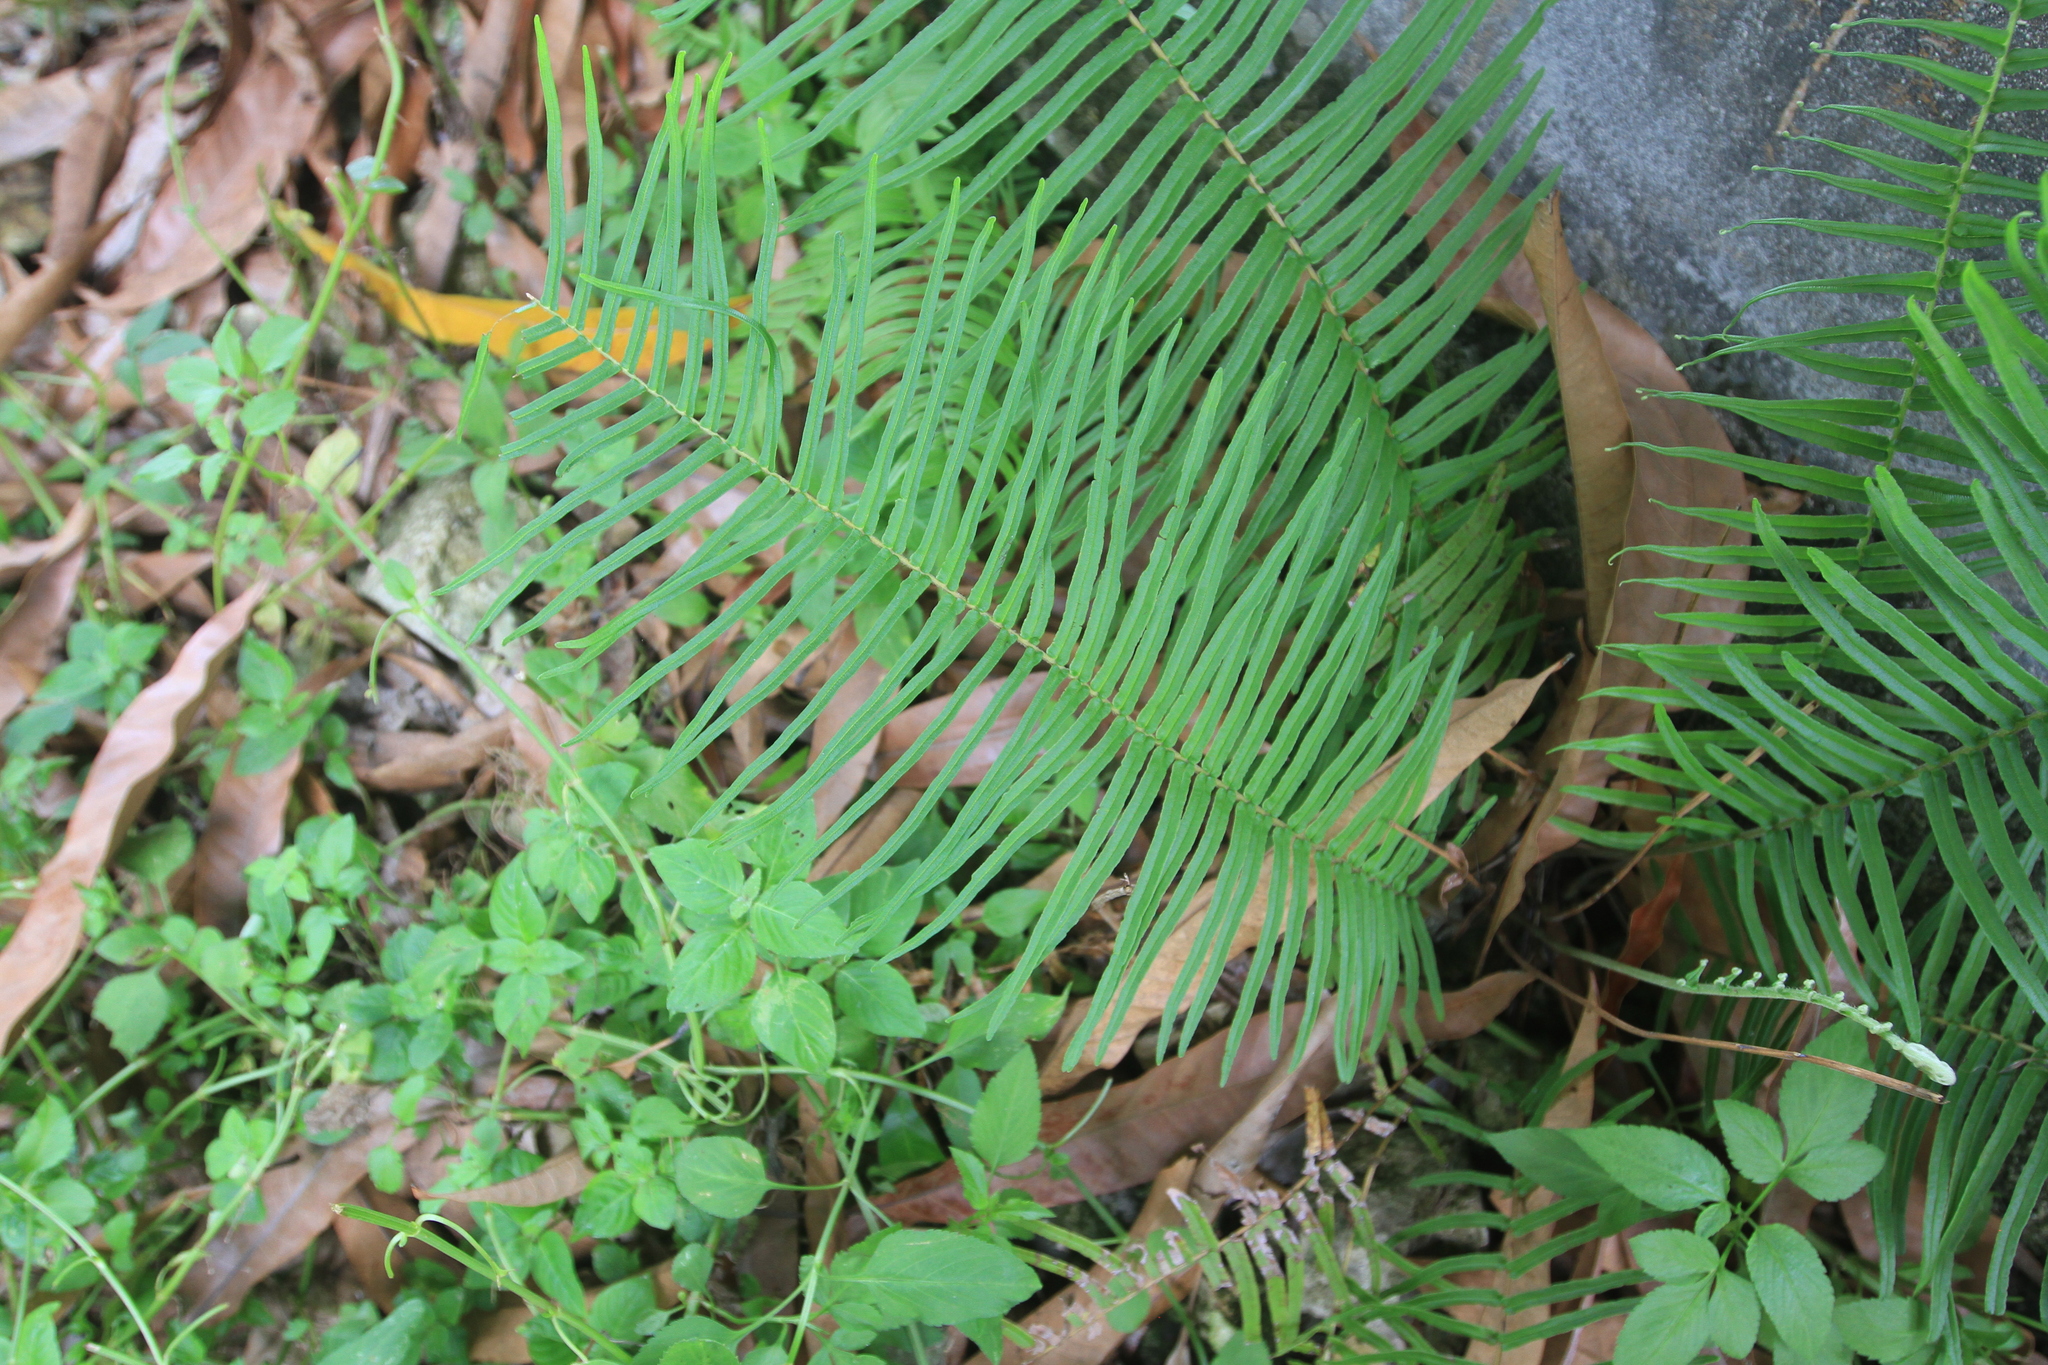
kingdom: Plantae
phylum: Tracheophyta
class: Polypodiopsida
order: Polypodiales
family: Pteridaceae
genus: Pteris
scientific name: Pteris vittata
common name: Ladder brake
